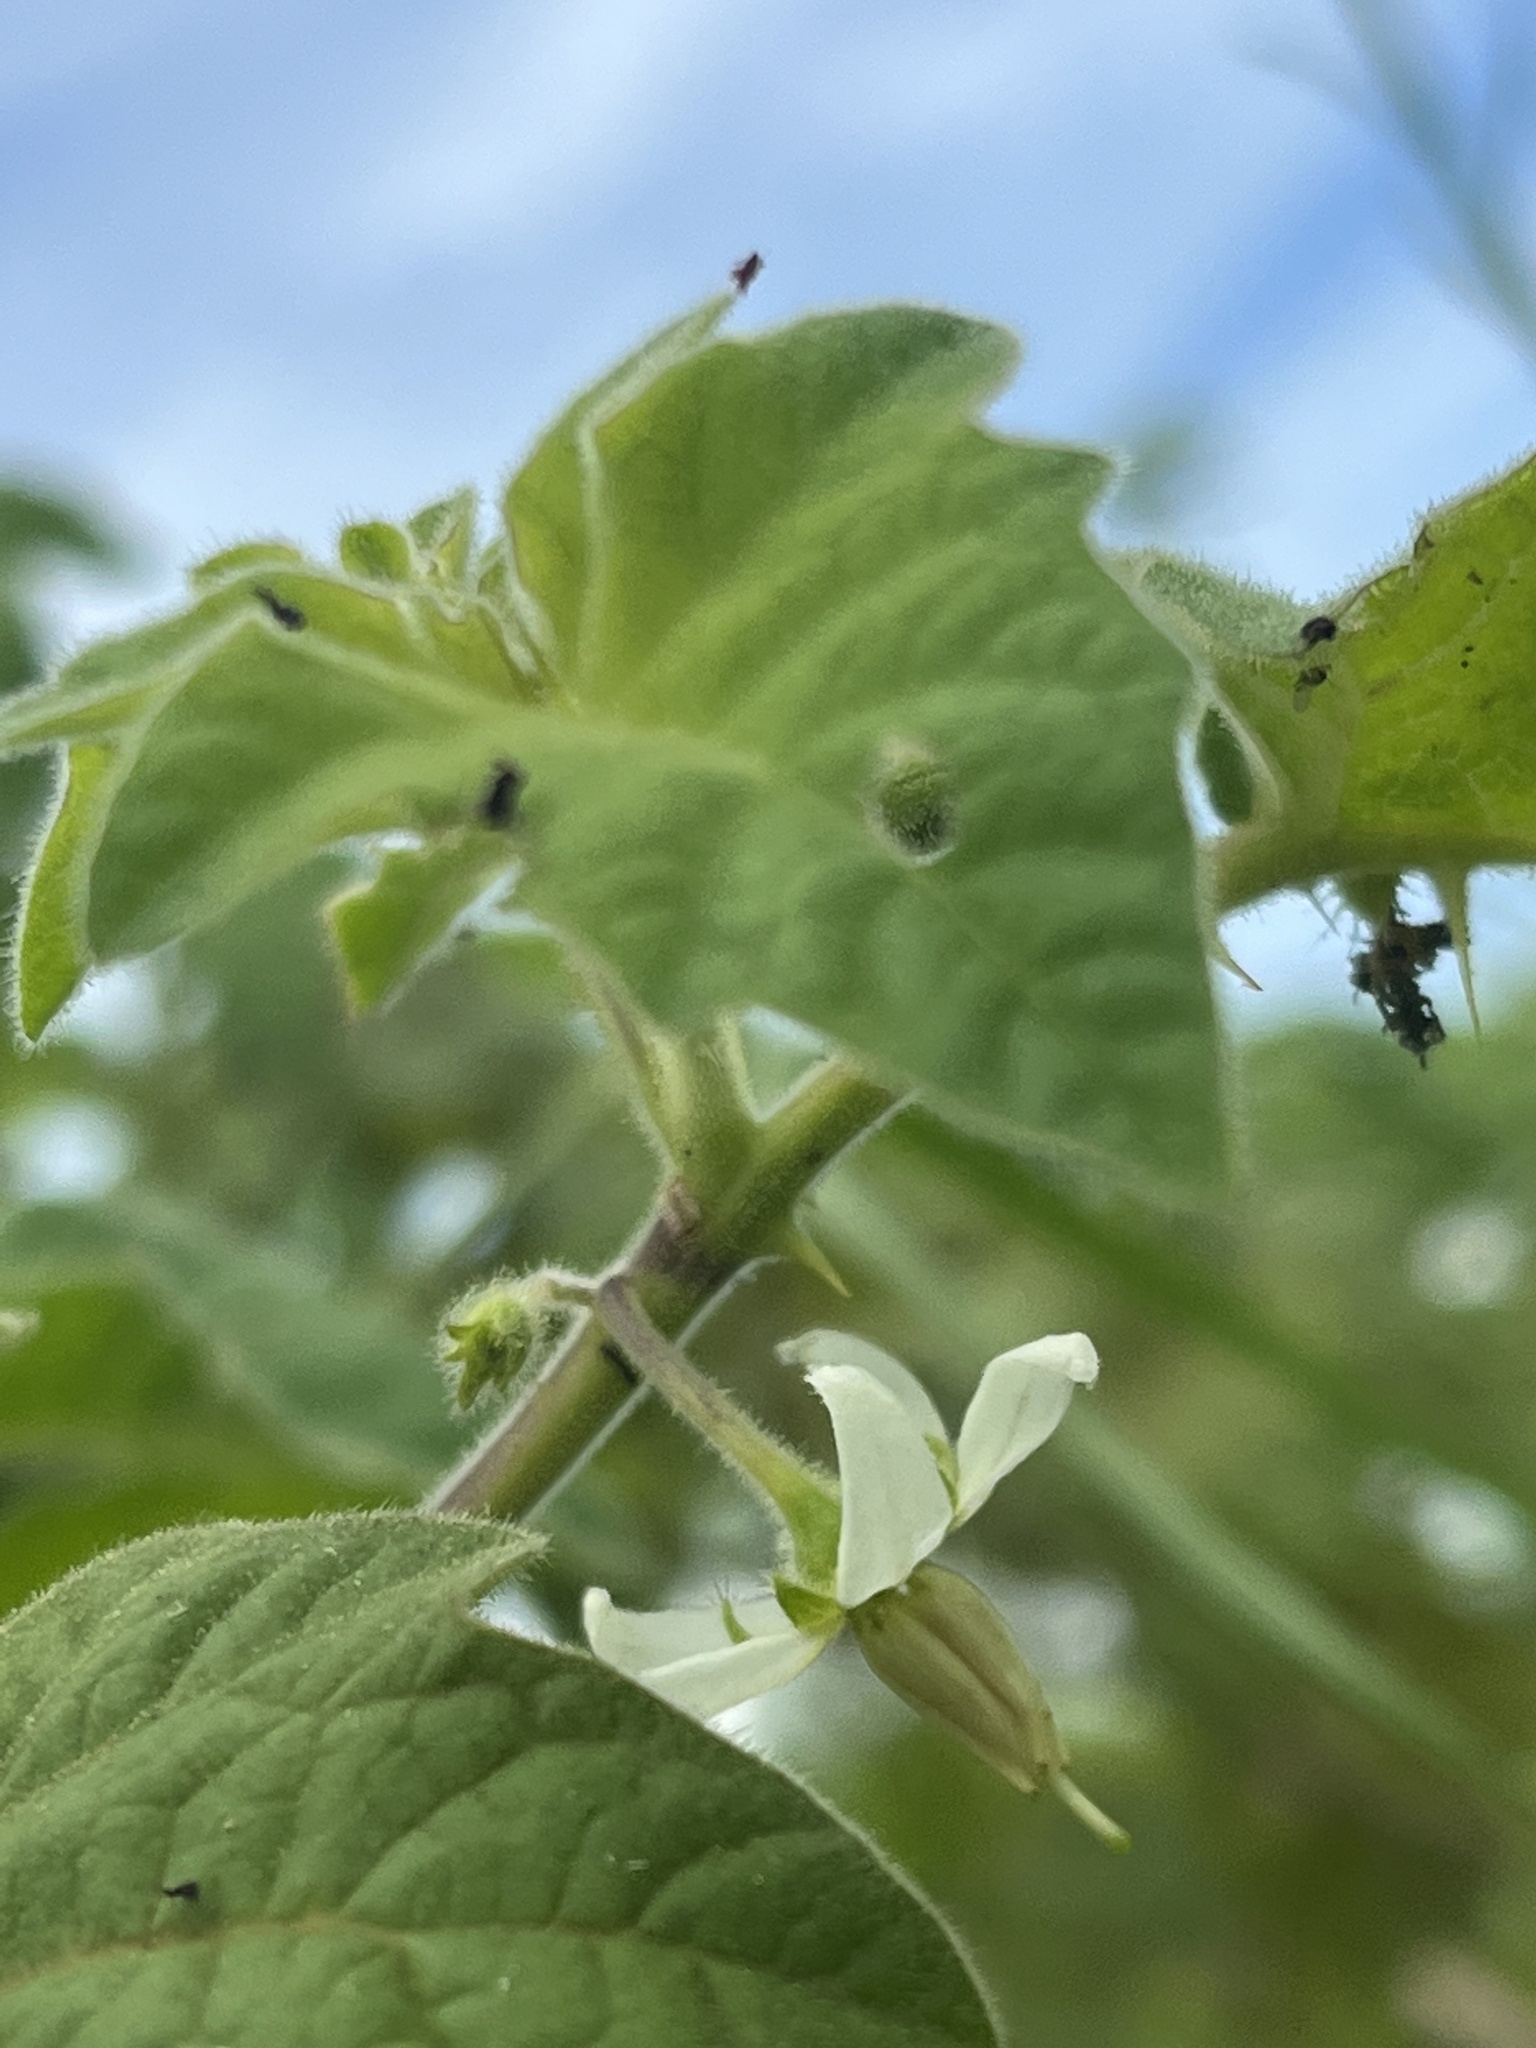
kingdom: Plantae
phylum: Tracheophyta
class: Magnoliopsida
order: Solanales
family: Solanaceae
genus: Solanum
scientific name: Solanum viarum
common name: Tropical soda apple
